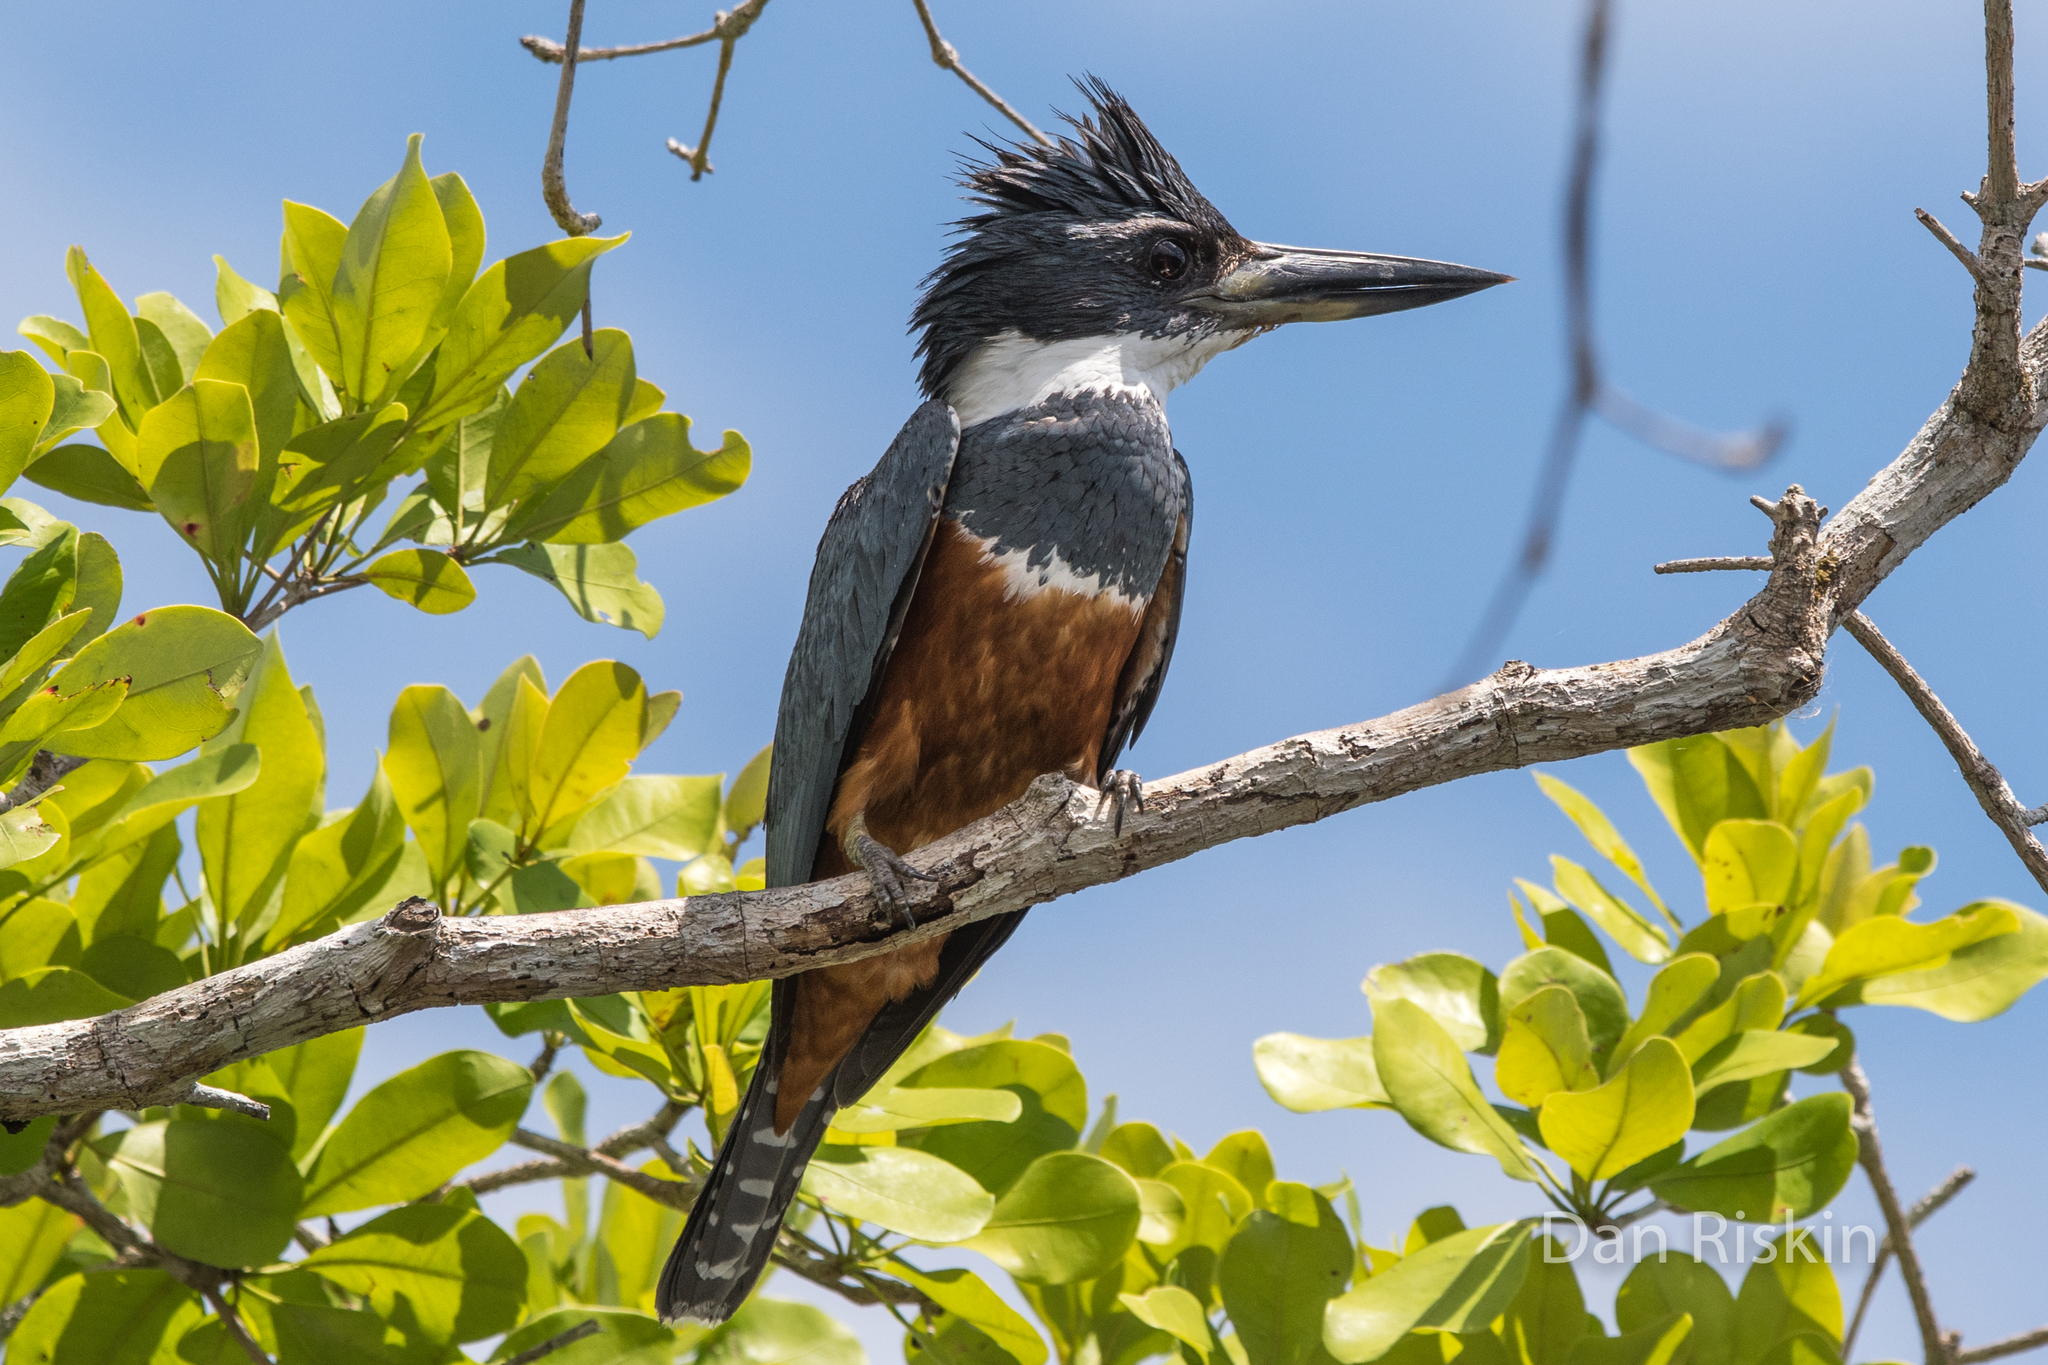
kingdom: Animalia
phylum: Chordata
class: Aves
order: Coraciiformes
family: Alcedinidae
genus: Megaceryle
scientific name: Megaceryle torquata
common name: Ringed kingfisher
